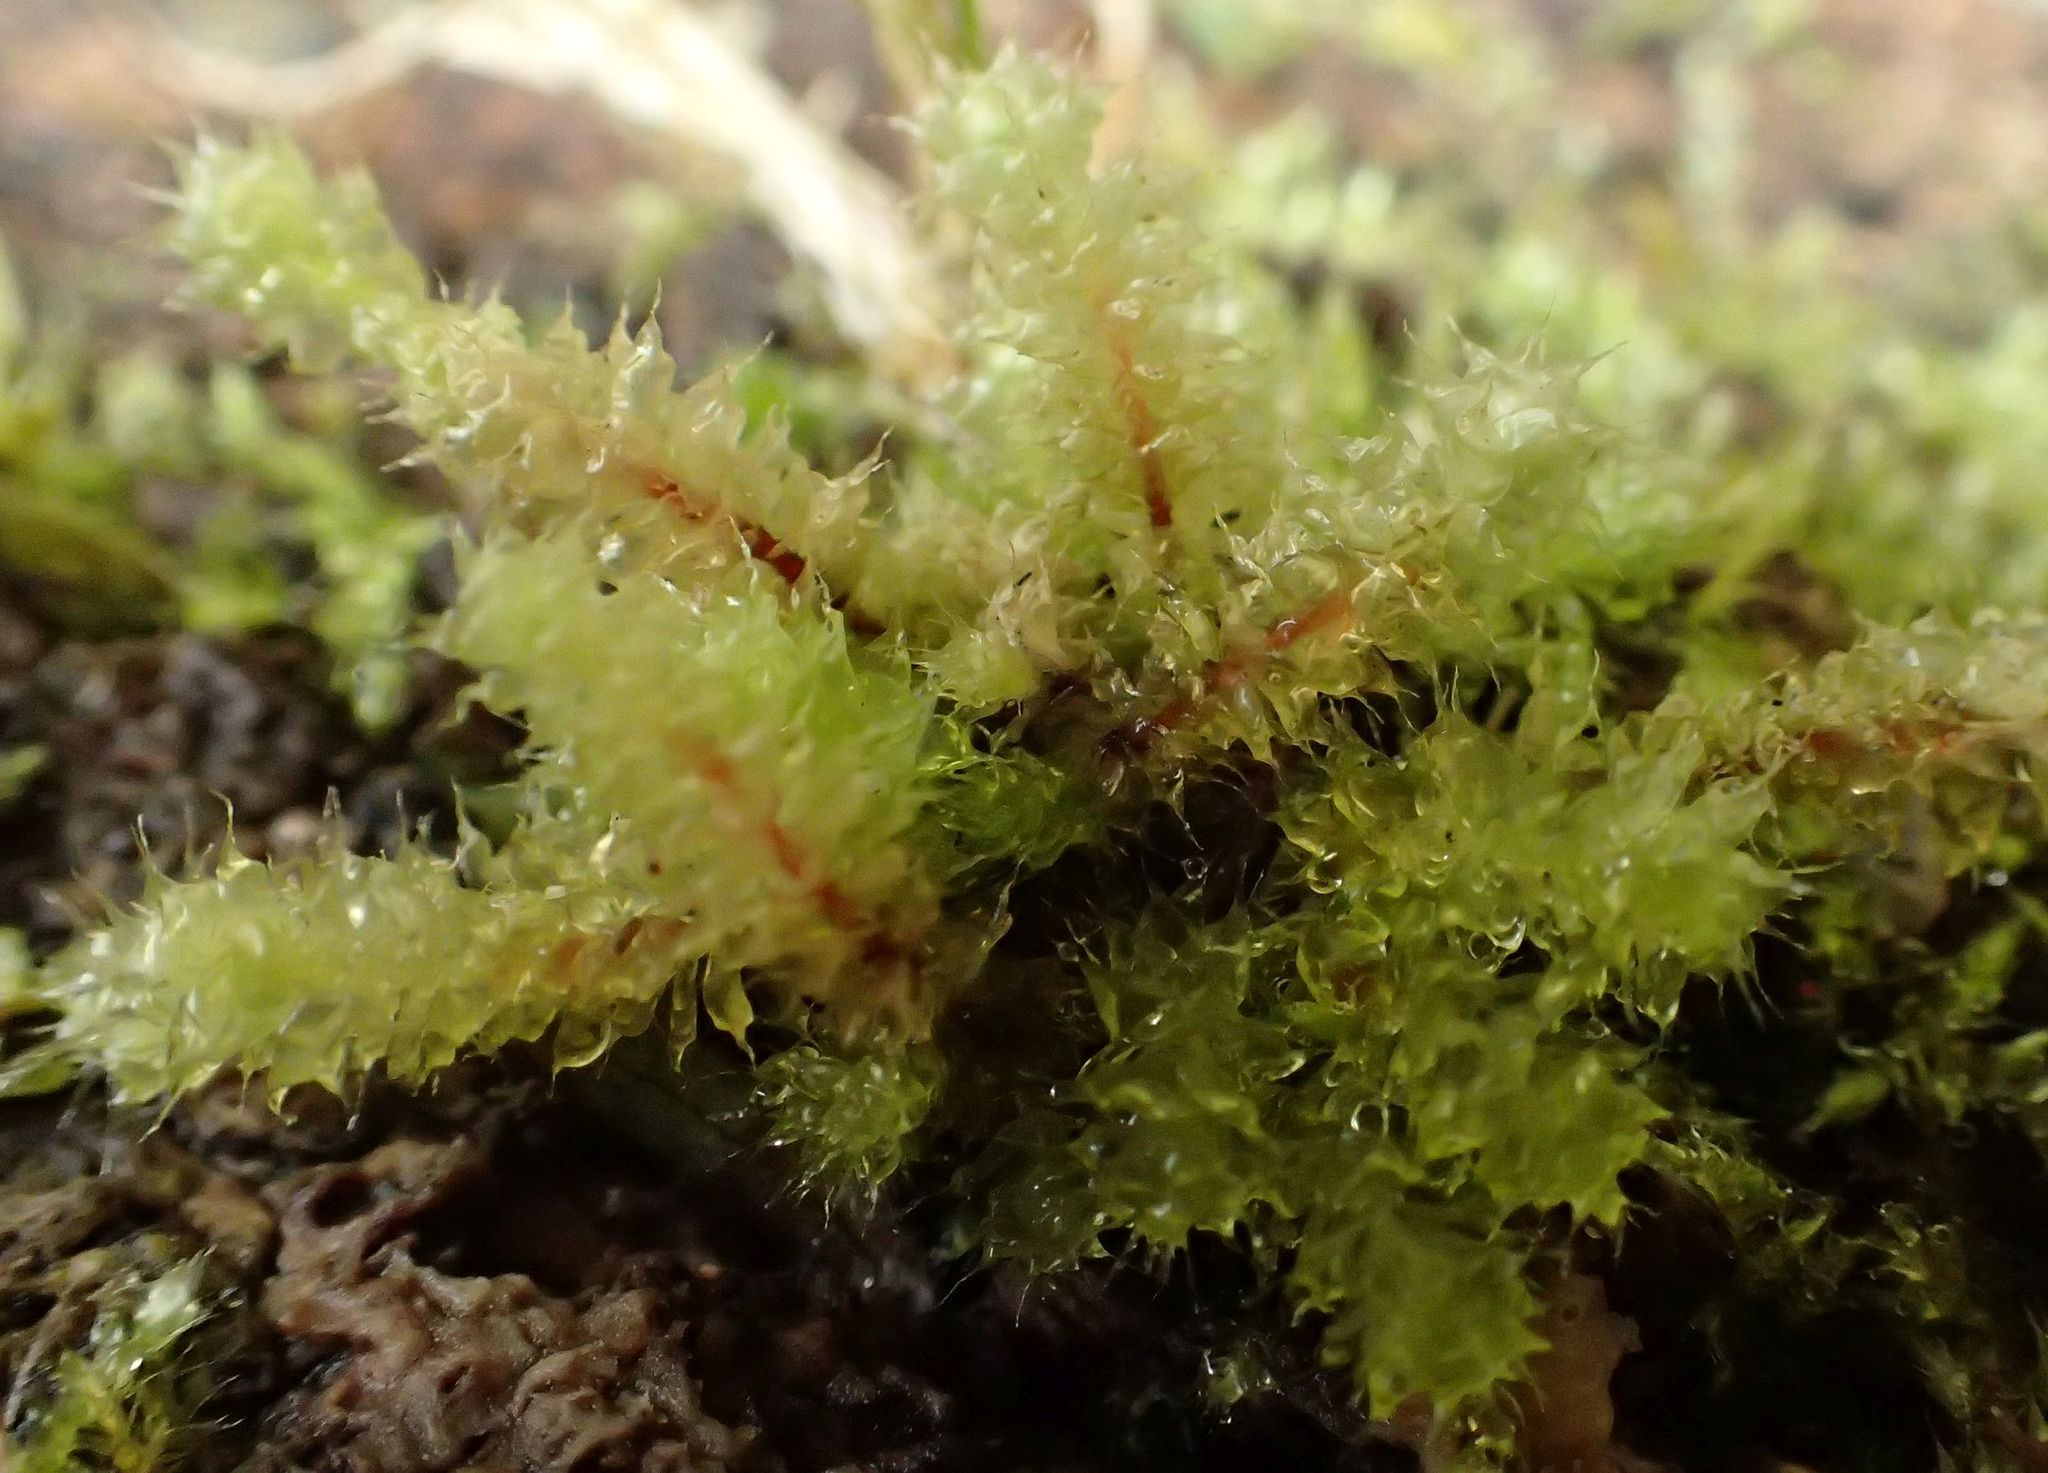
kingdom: Plantae
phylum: Bryophyta
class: Bryopsida
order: Ptychomniales
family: Ptychomniaceae
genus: Ptychomnion
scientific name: Ptychomnion aciculare
